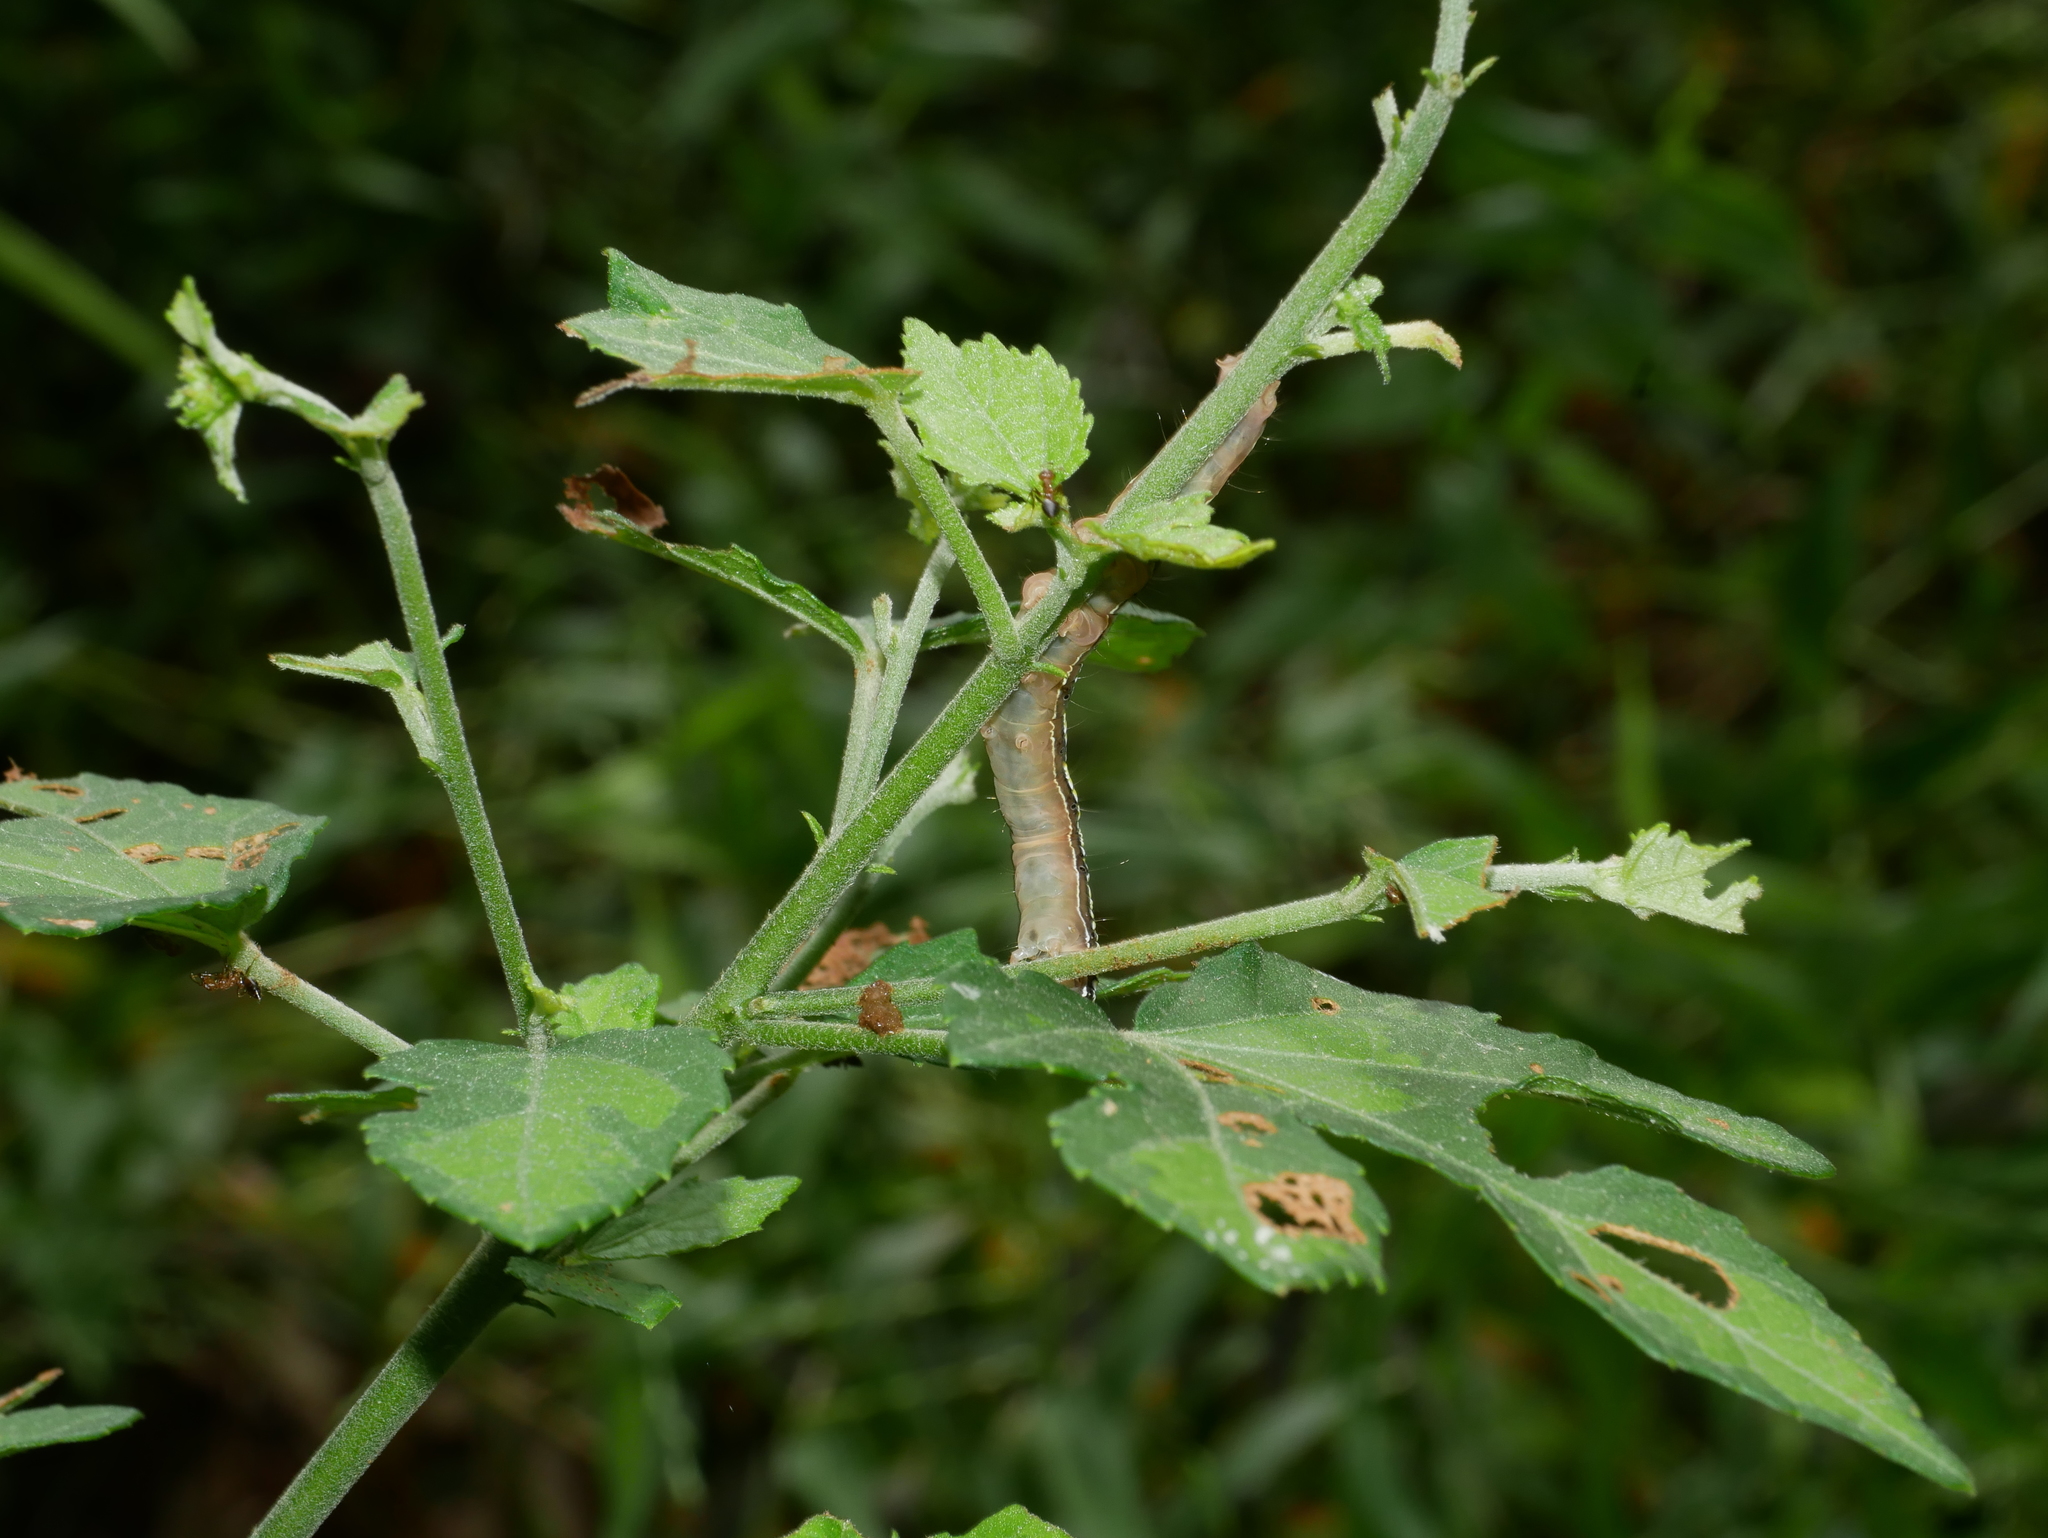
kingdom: Animalia
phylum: Arthropoda
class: Insecta
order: Lepidoptera
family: Erebidae
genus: Anomis
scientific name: Anomis fulvida
